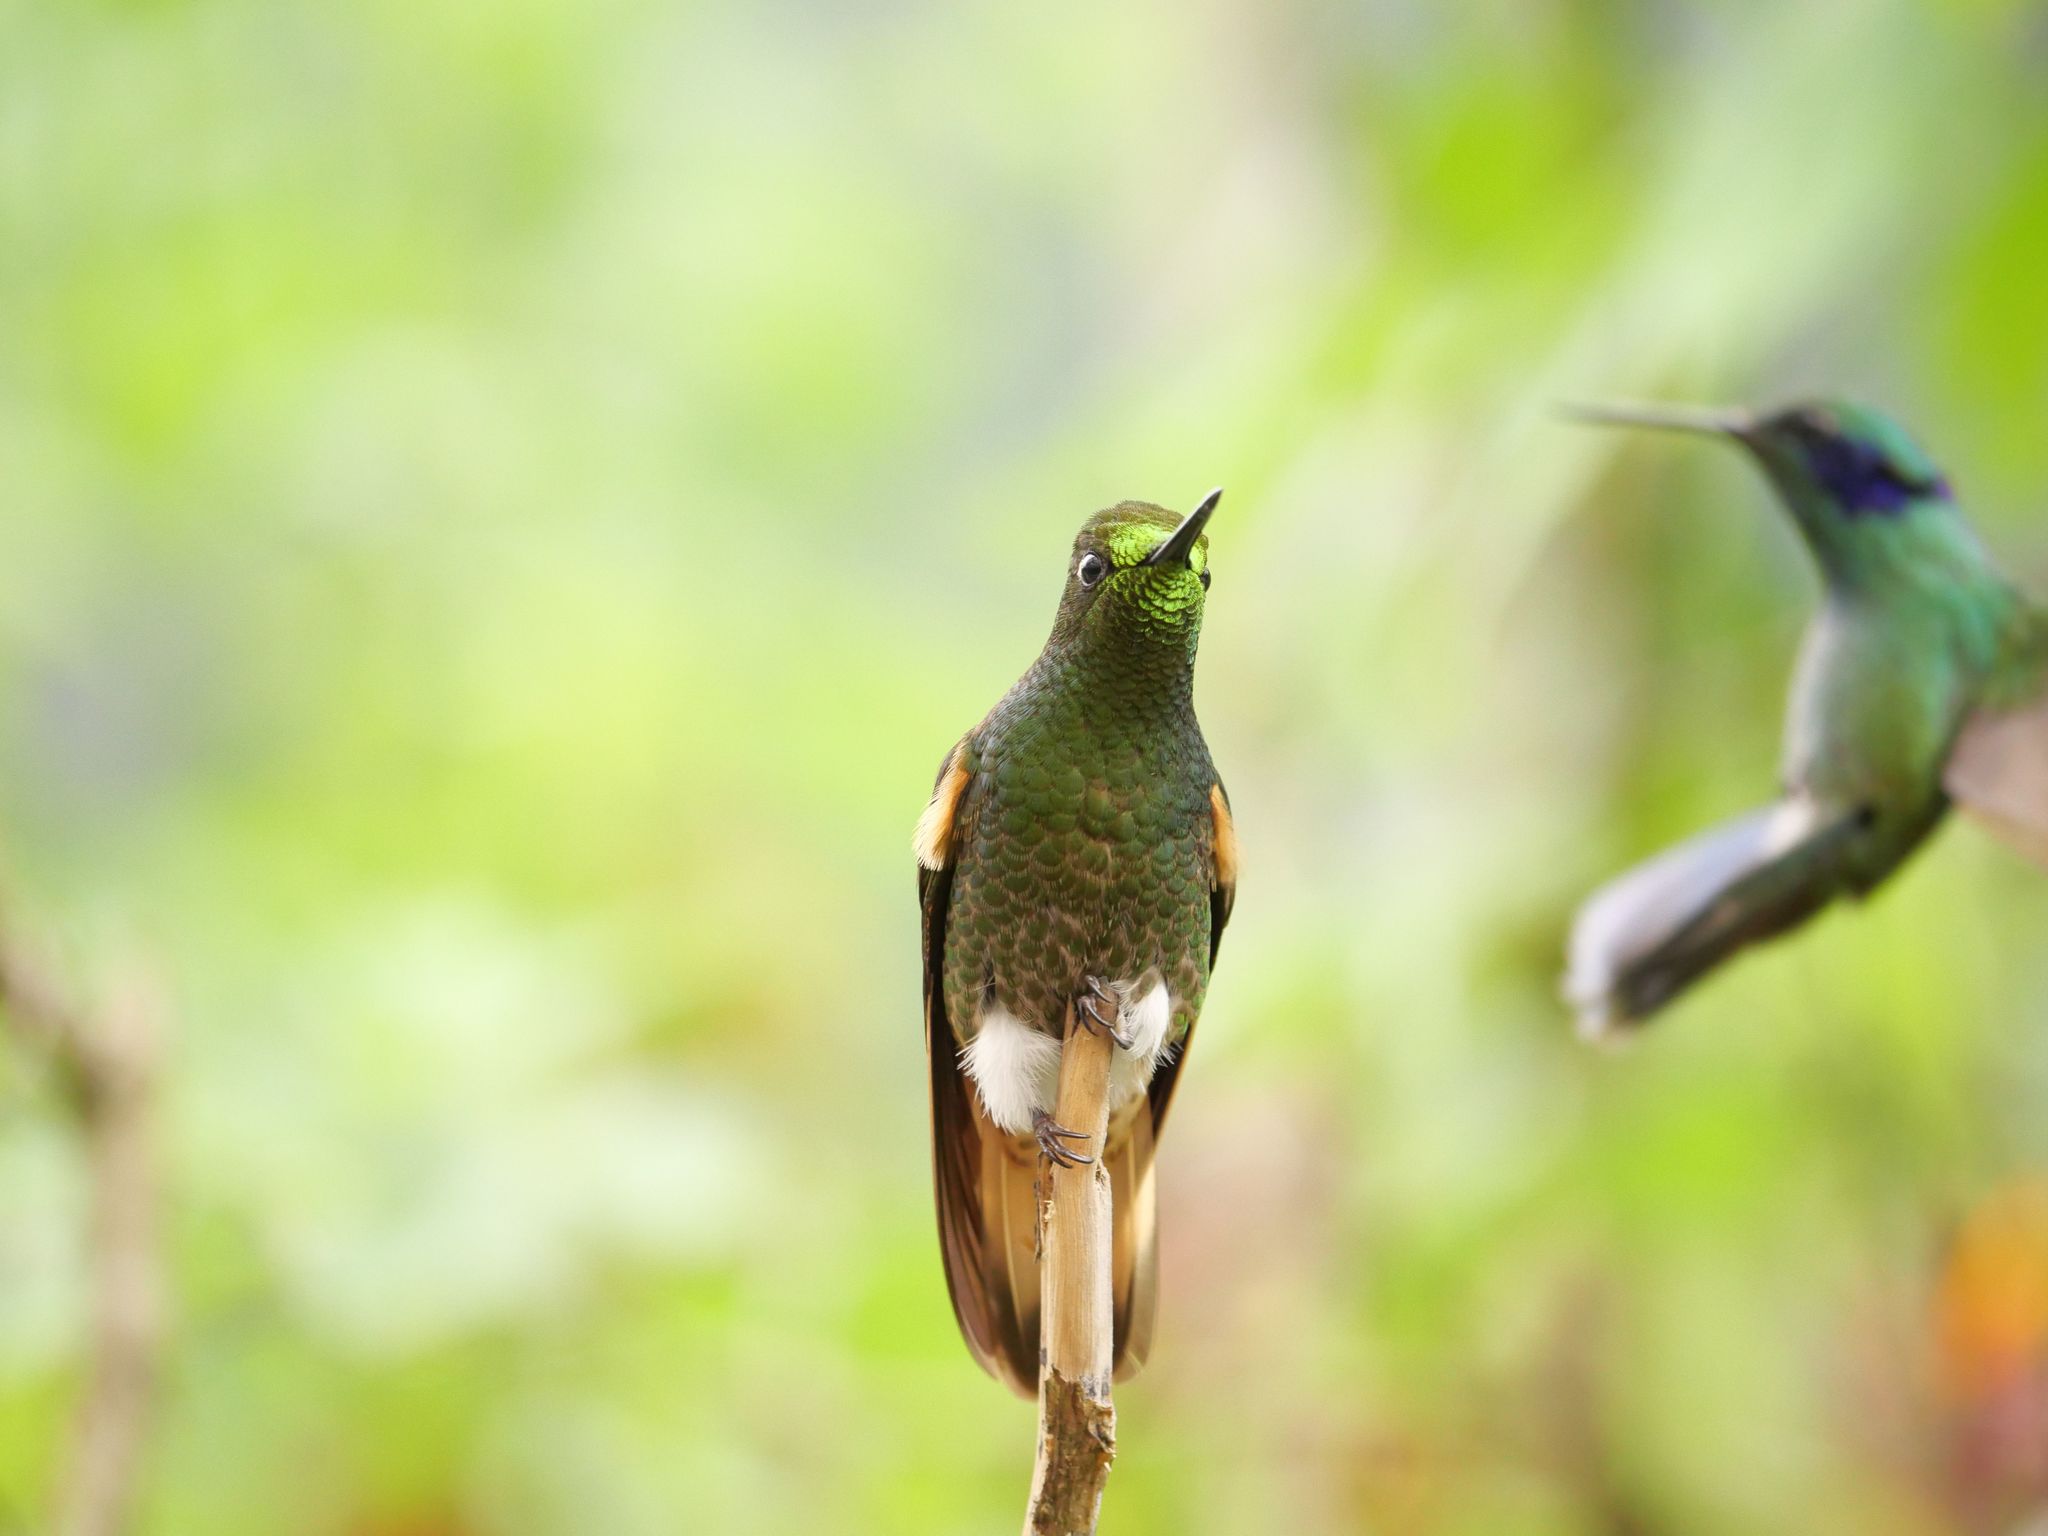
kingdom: Animalia
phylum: Chordata
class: Aves
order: Apodiformes
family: Trochilidae
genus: Boissonneaua
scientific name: Boissonneaua flavescens
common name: Buff-tailed coronet
